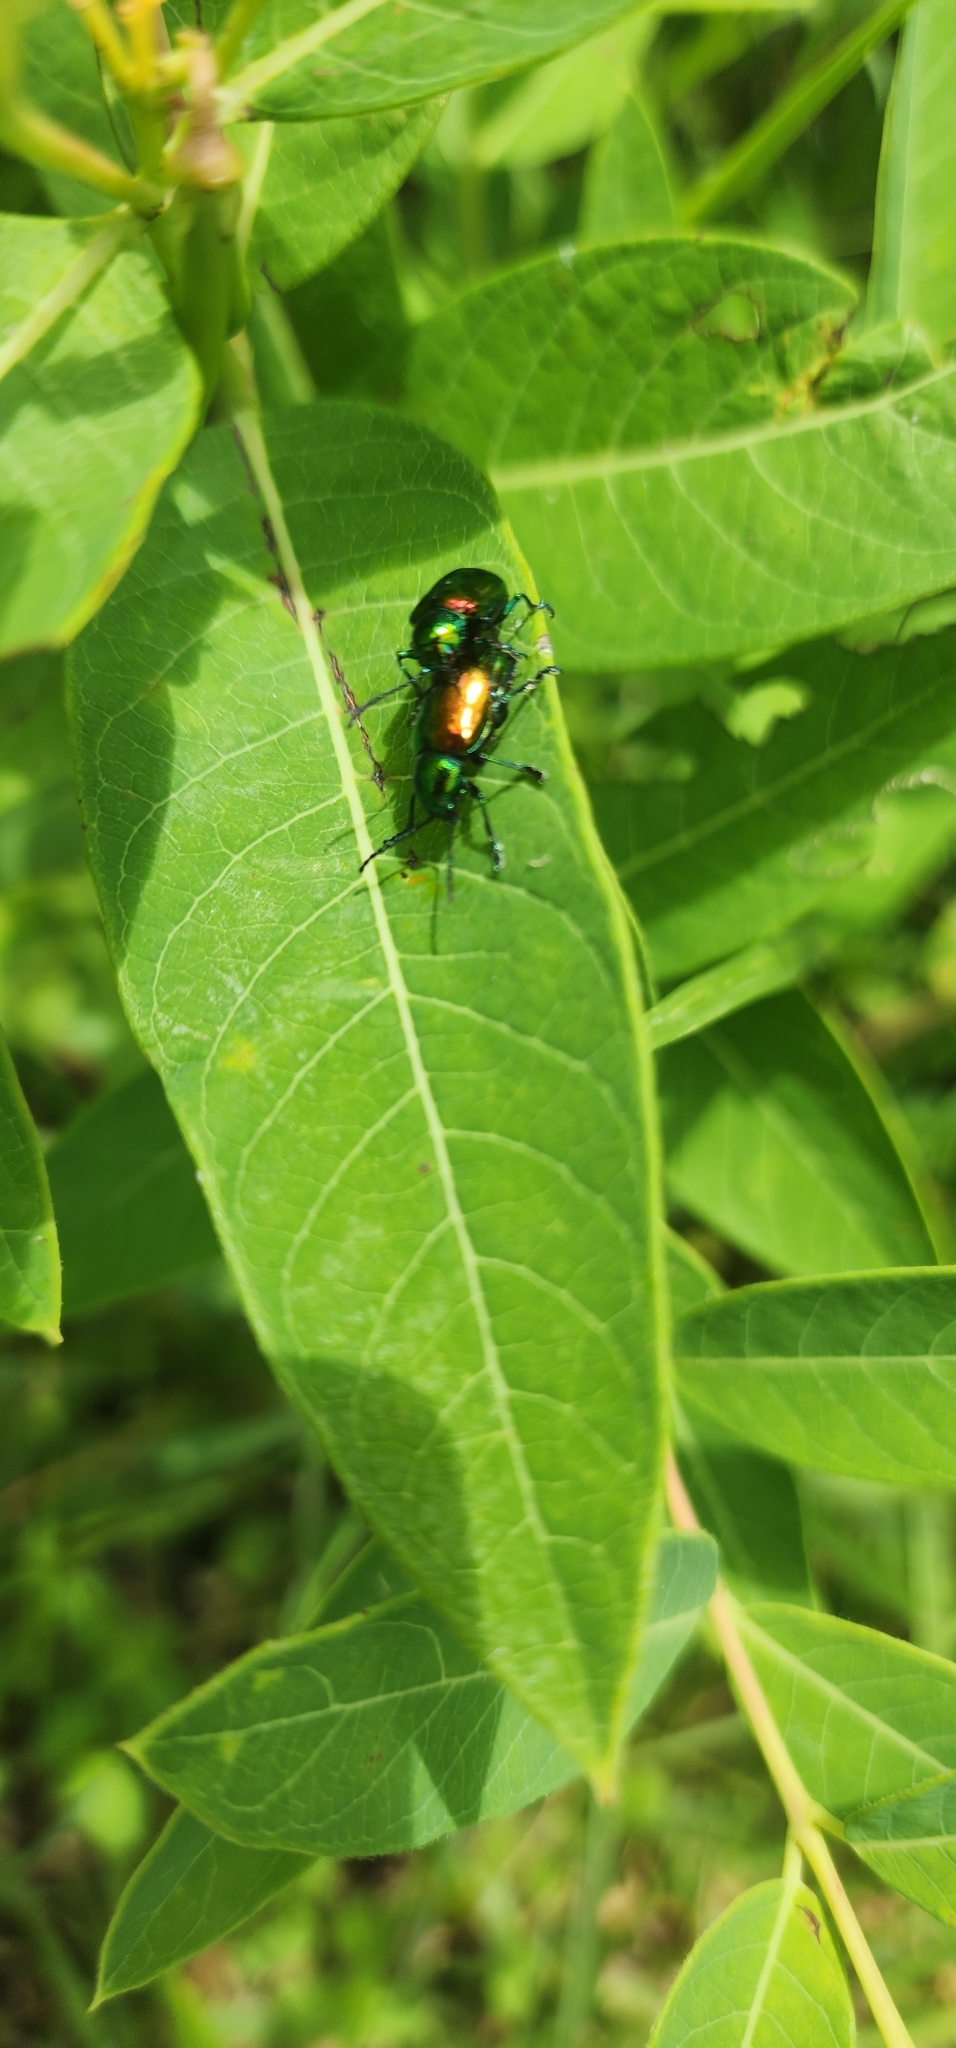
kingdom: Animalia
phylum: Arthropoda
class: Insecta
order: Coleoptera
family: Chrysomelidae
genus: Chrysochus
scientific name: Chrysochus auratus
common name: Dogbane leaf beetle
